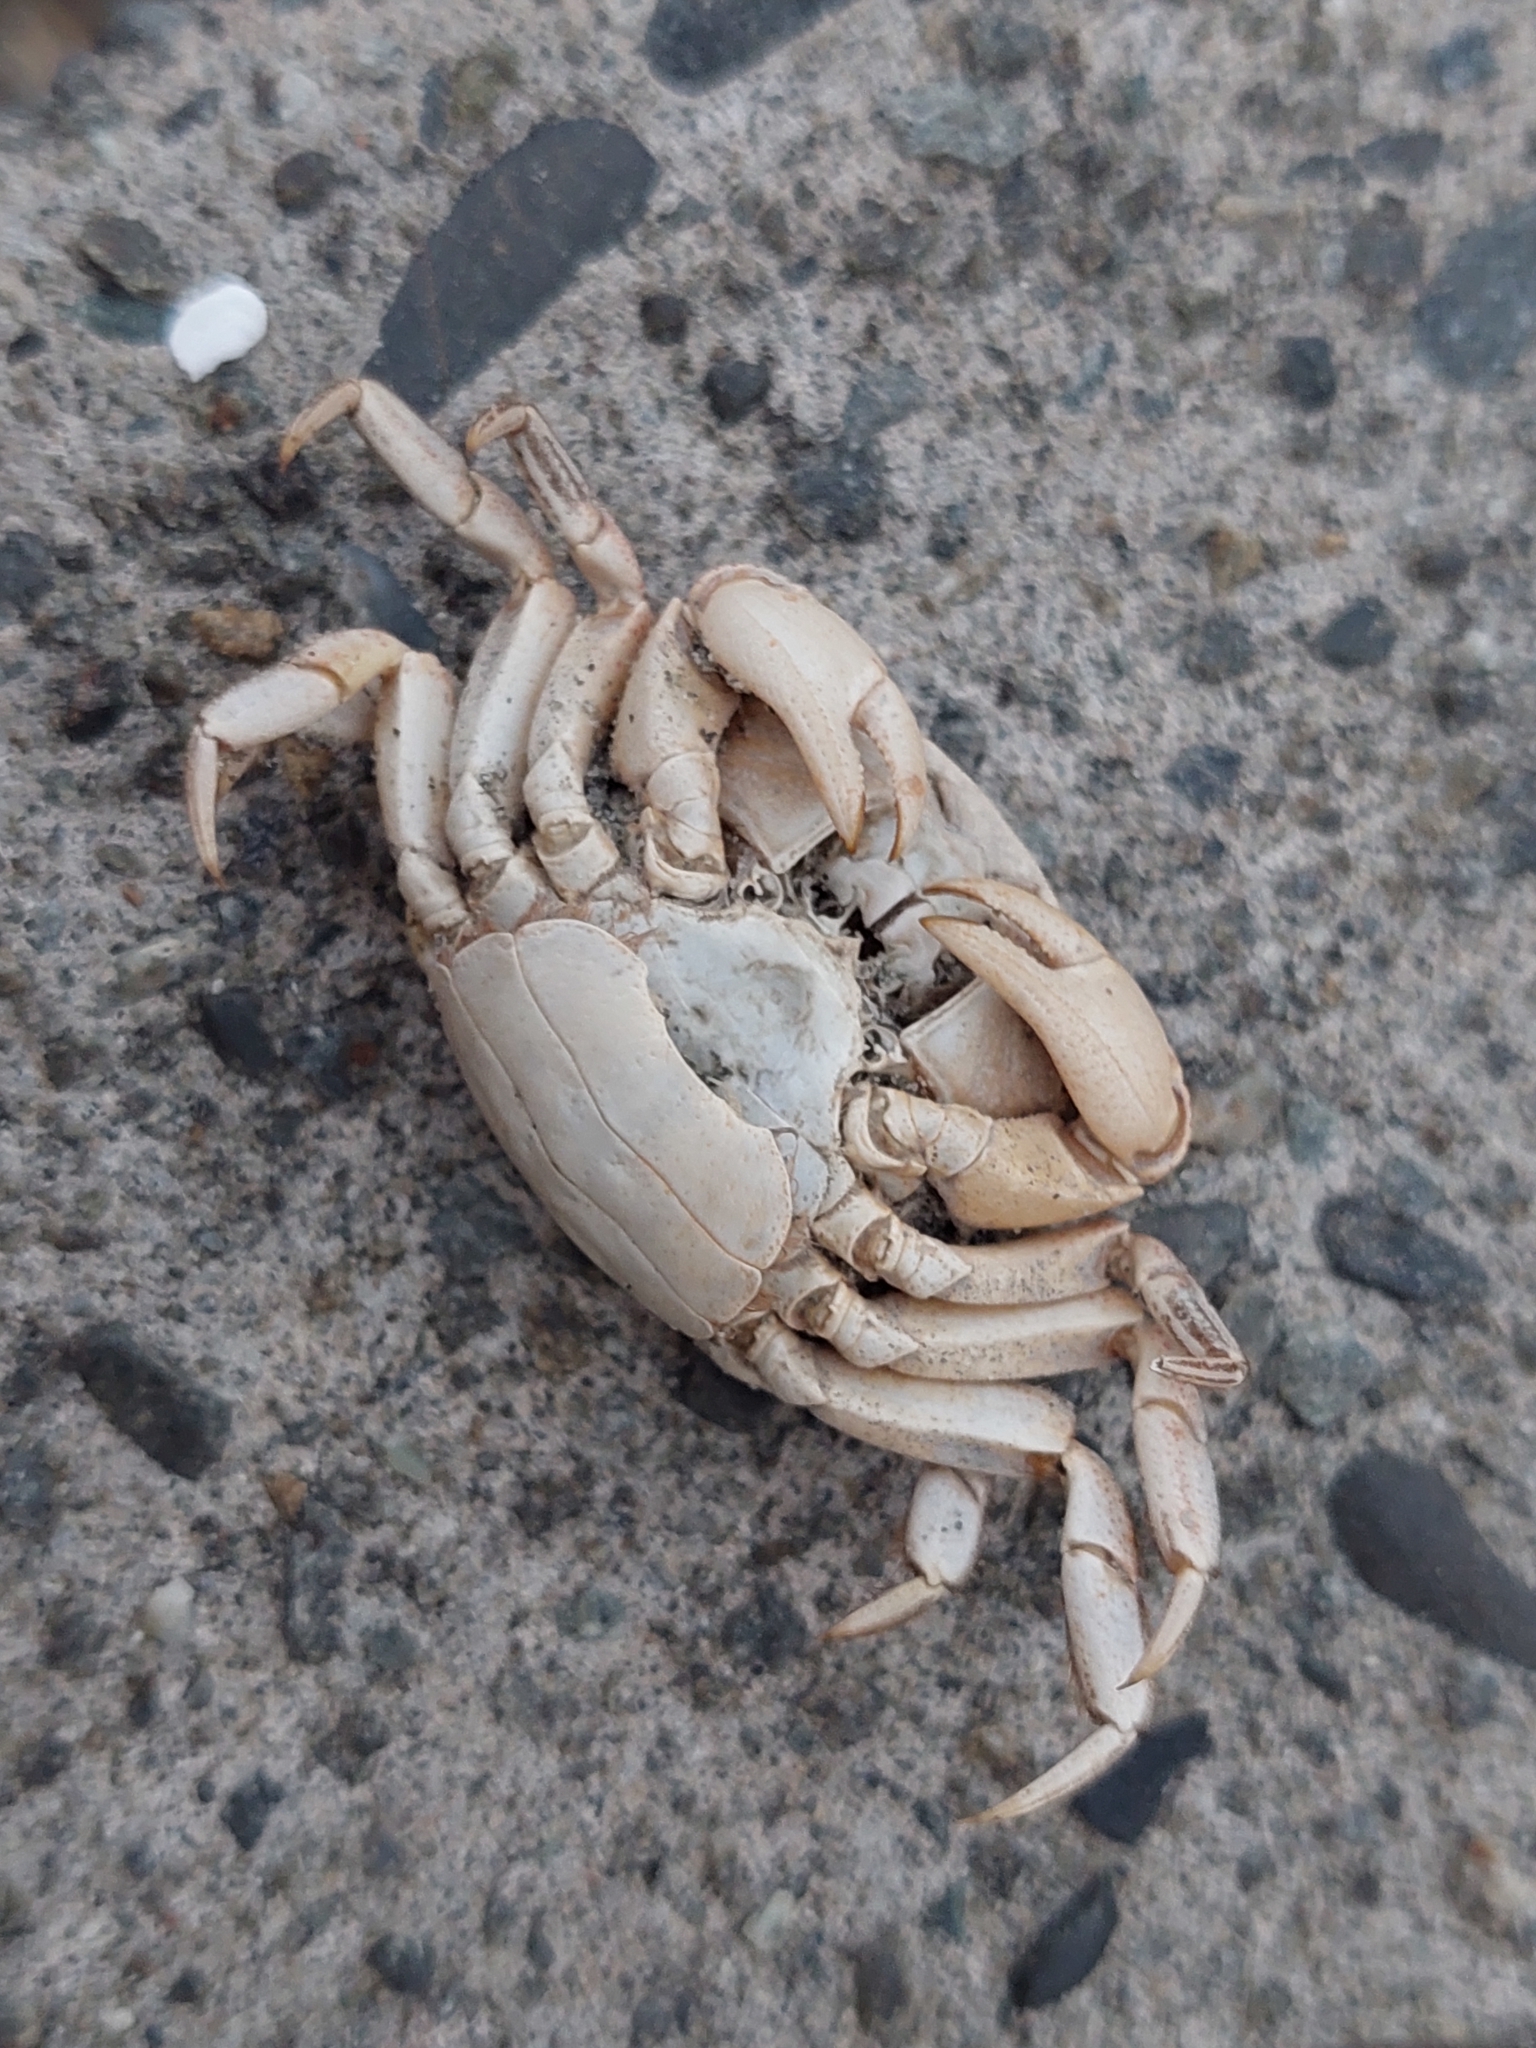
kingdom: Animalia
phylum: Arthropoda
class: Malacostraca
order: Decapoda
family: Varunidae
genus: Hemigrapsus
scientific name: Hemigrapsus crenulatus
